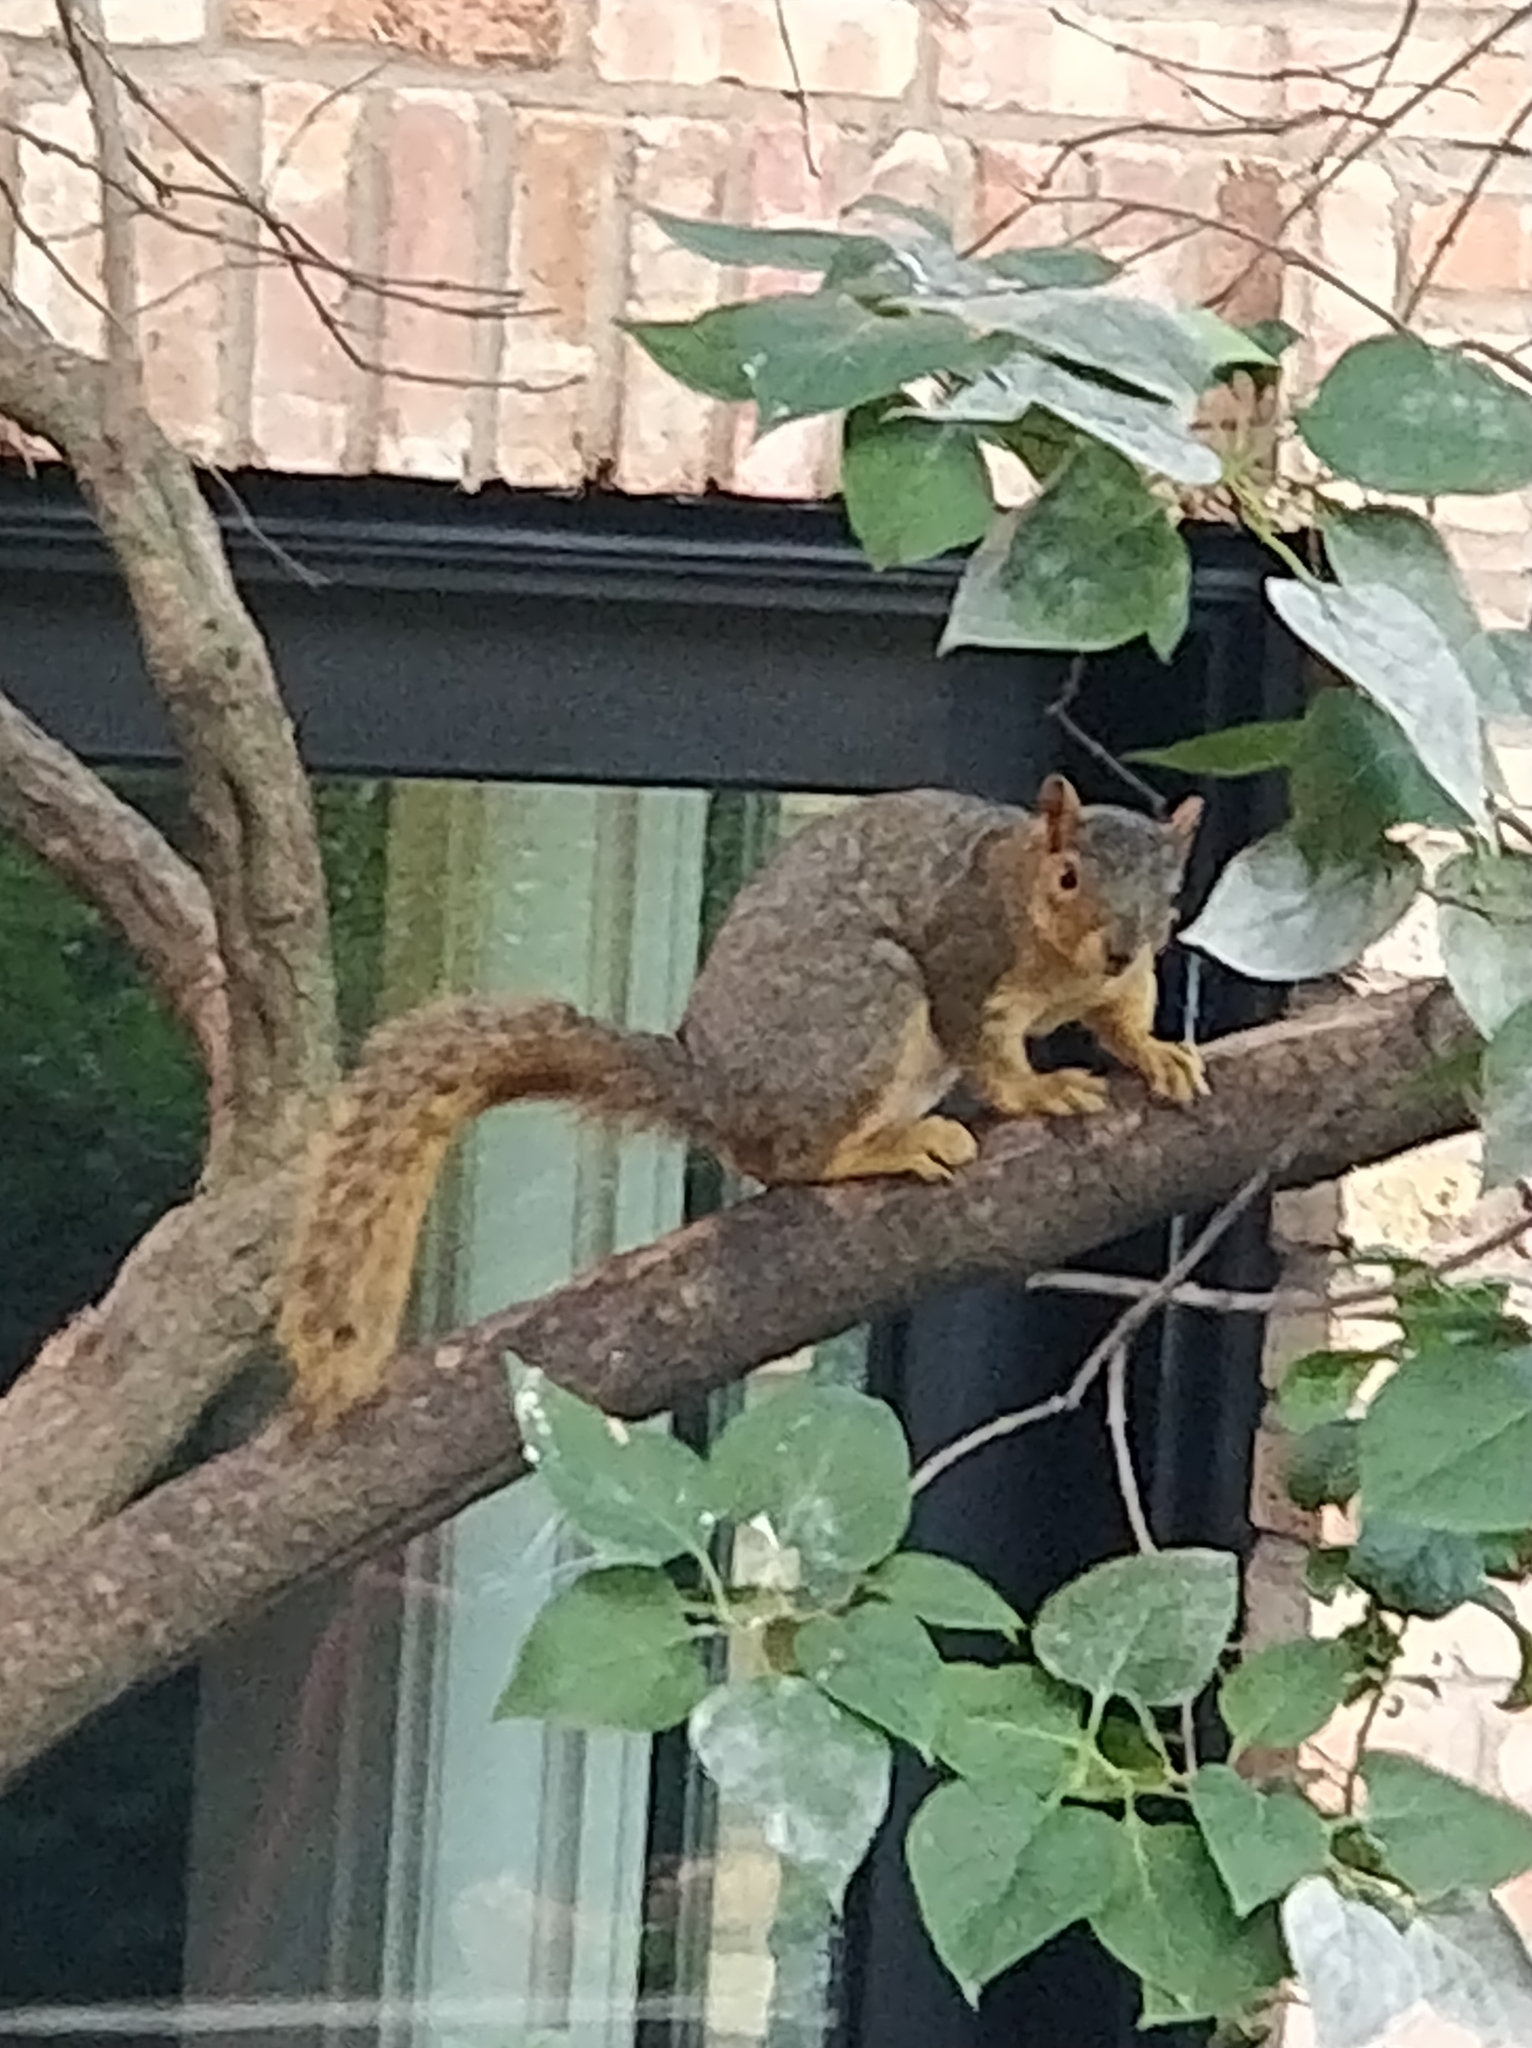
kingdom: Animalia
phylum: Chordata
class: Mammalia
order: Rodentia
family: Sciuridae
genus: Sciurus
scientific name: Sciurus niger
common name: Fox squirrel
